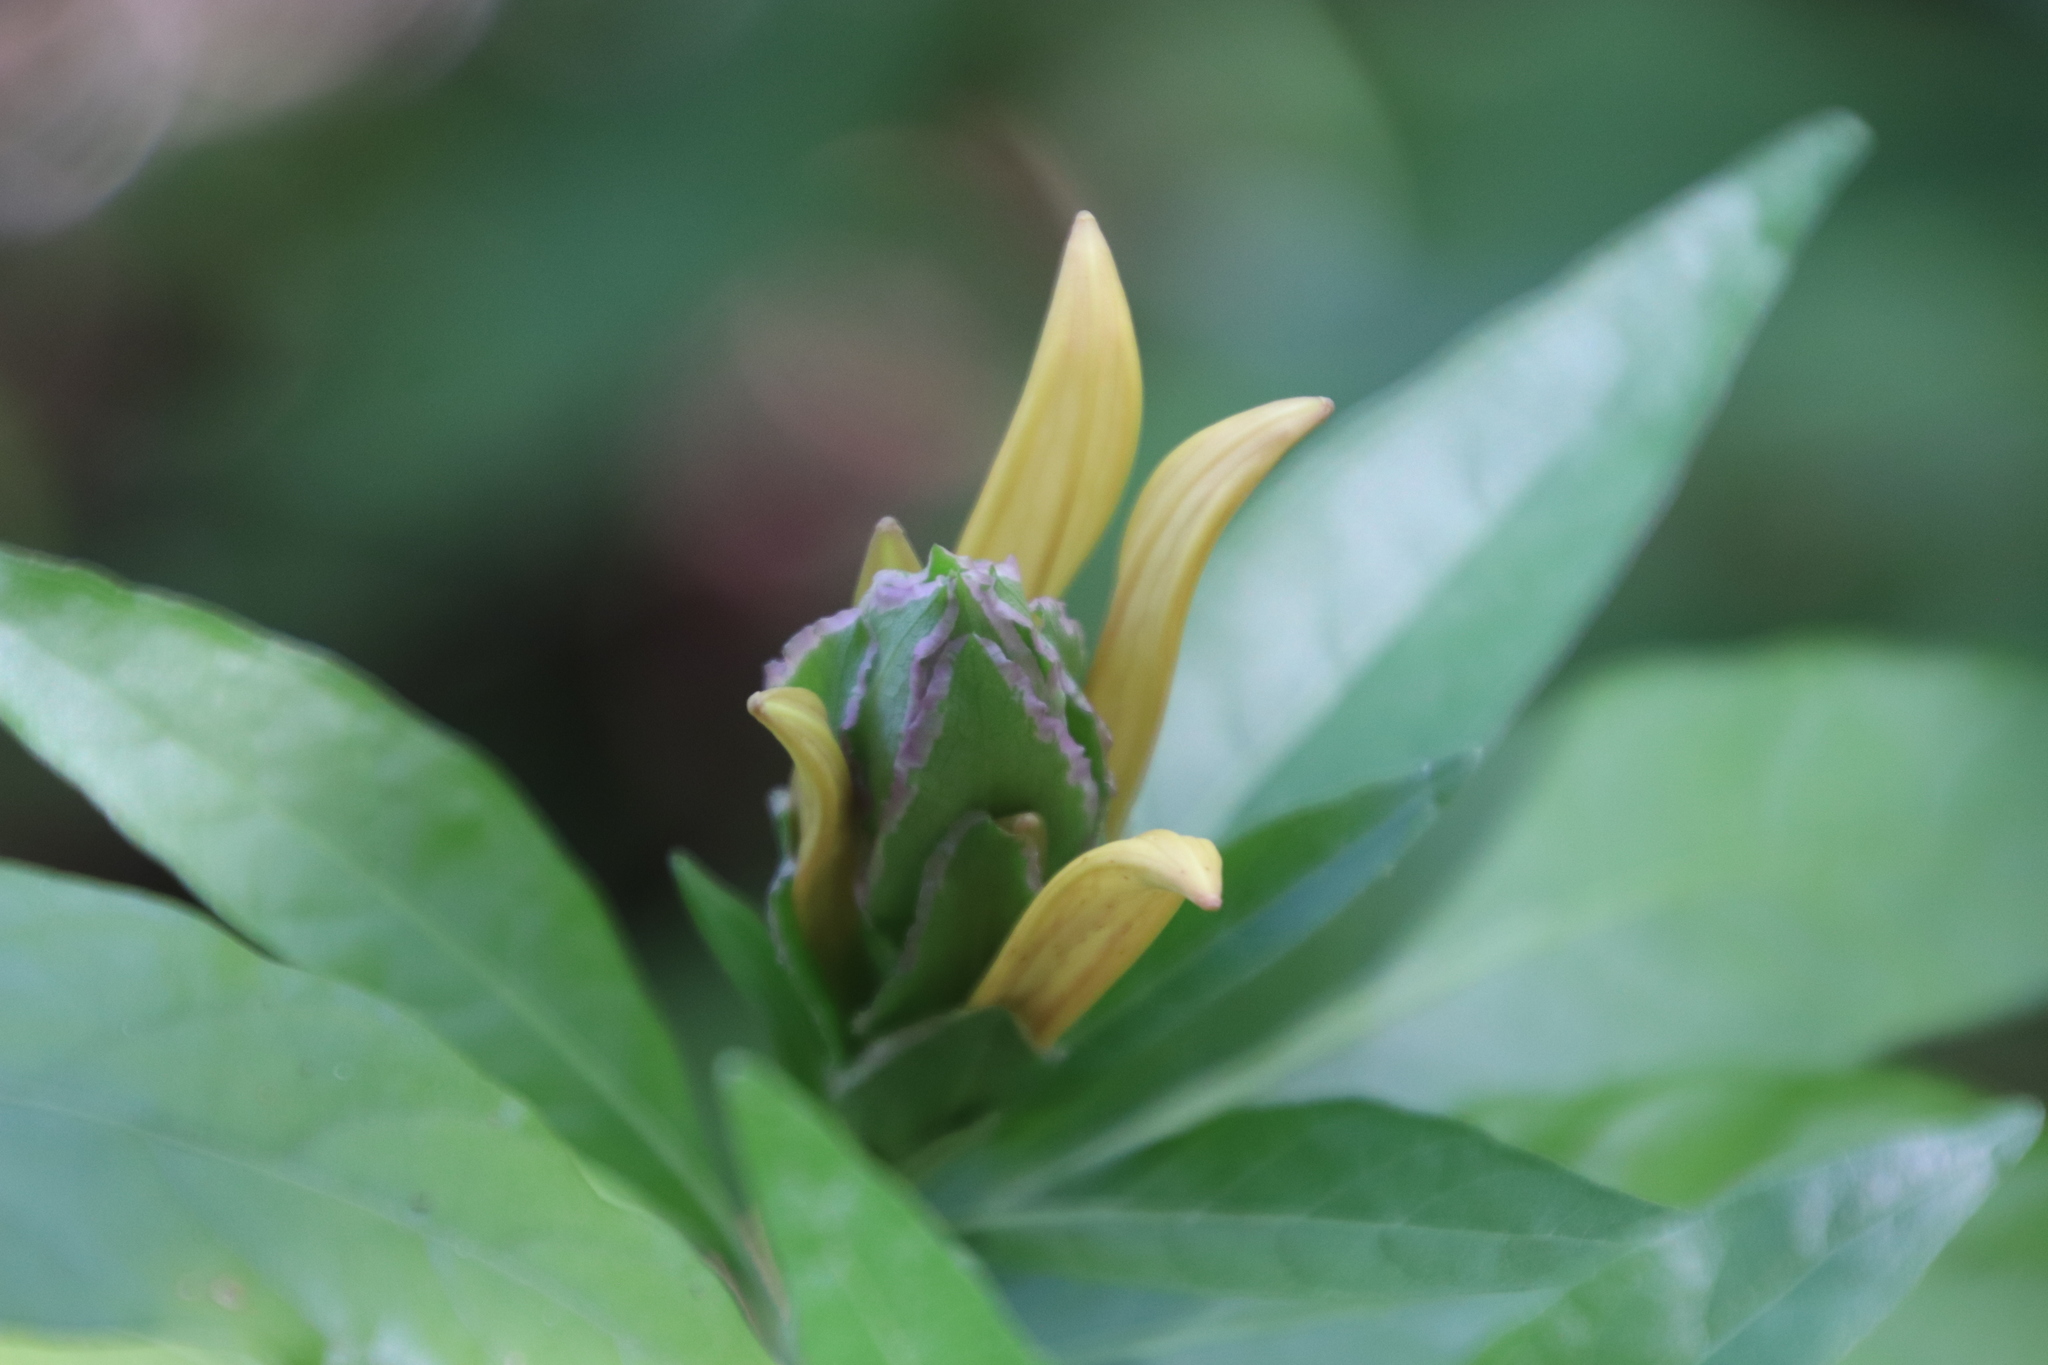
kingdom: Plantae
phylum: Tracheophyta
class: Magnoliopsida
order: Lamiales
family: Acanthaceae
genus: Metarungia
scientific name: Metarungia longistrobus
